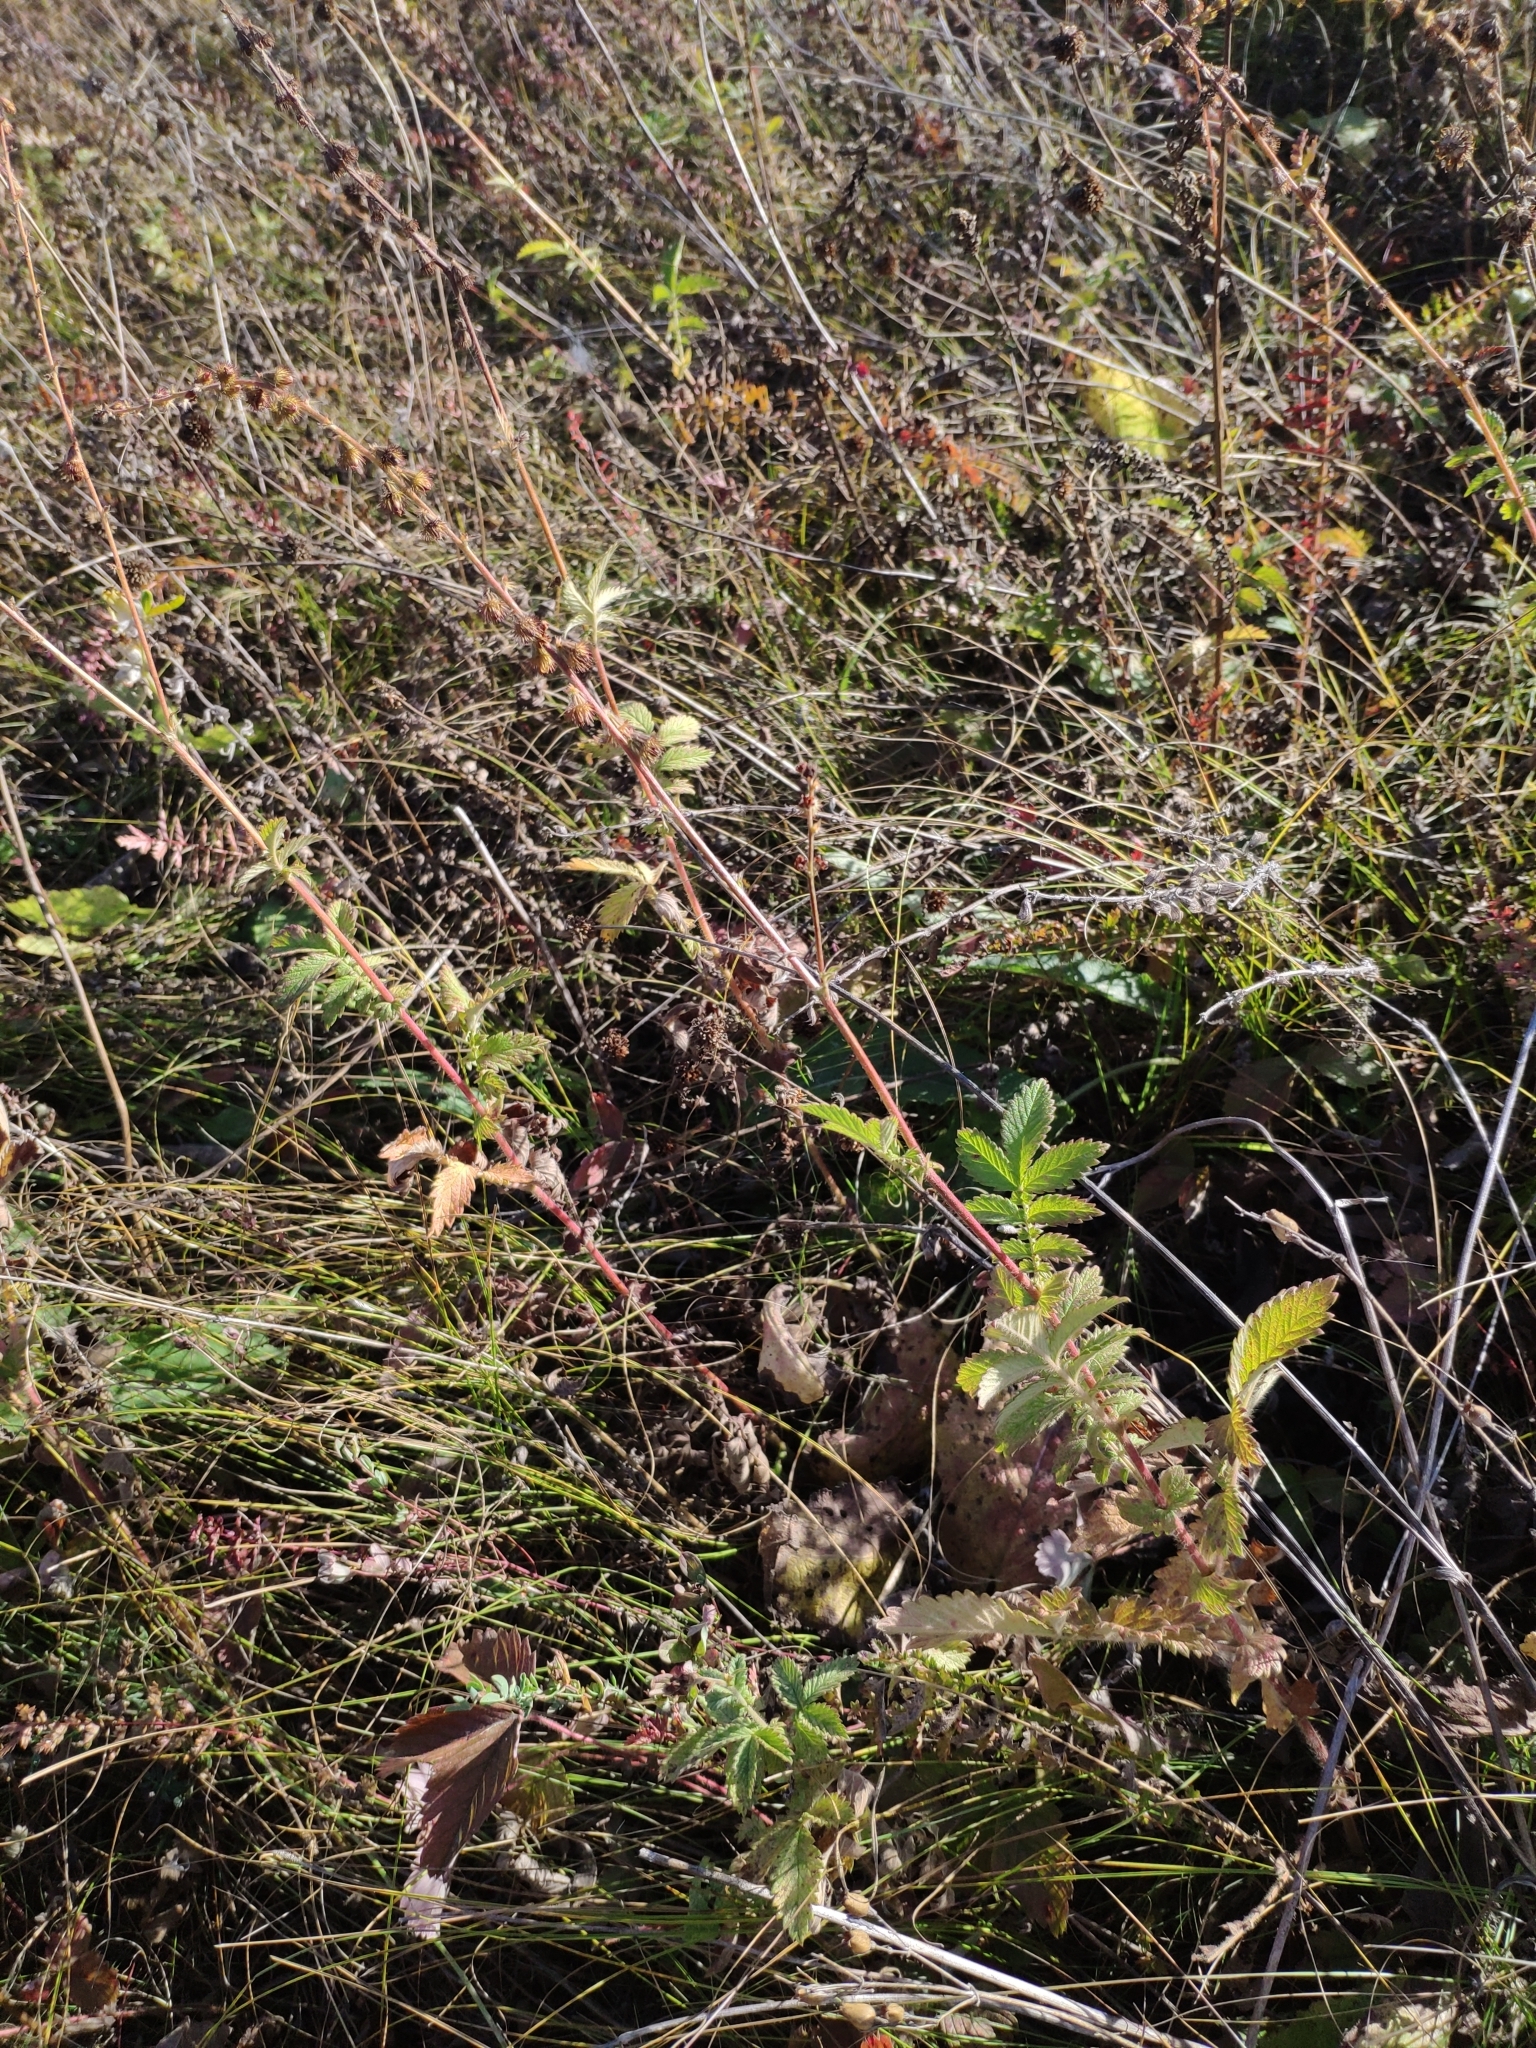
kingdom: Plantae
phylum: Tracheophyta
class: Magnoliopsida
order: Rosales
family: Rosaceae
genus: Agrimonia
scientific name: Agrimonia eupatoria
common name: Agrimony
